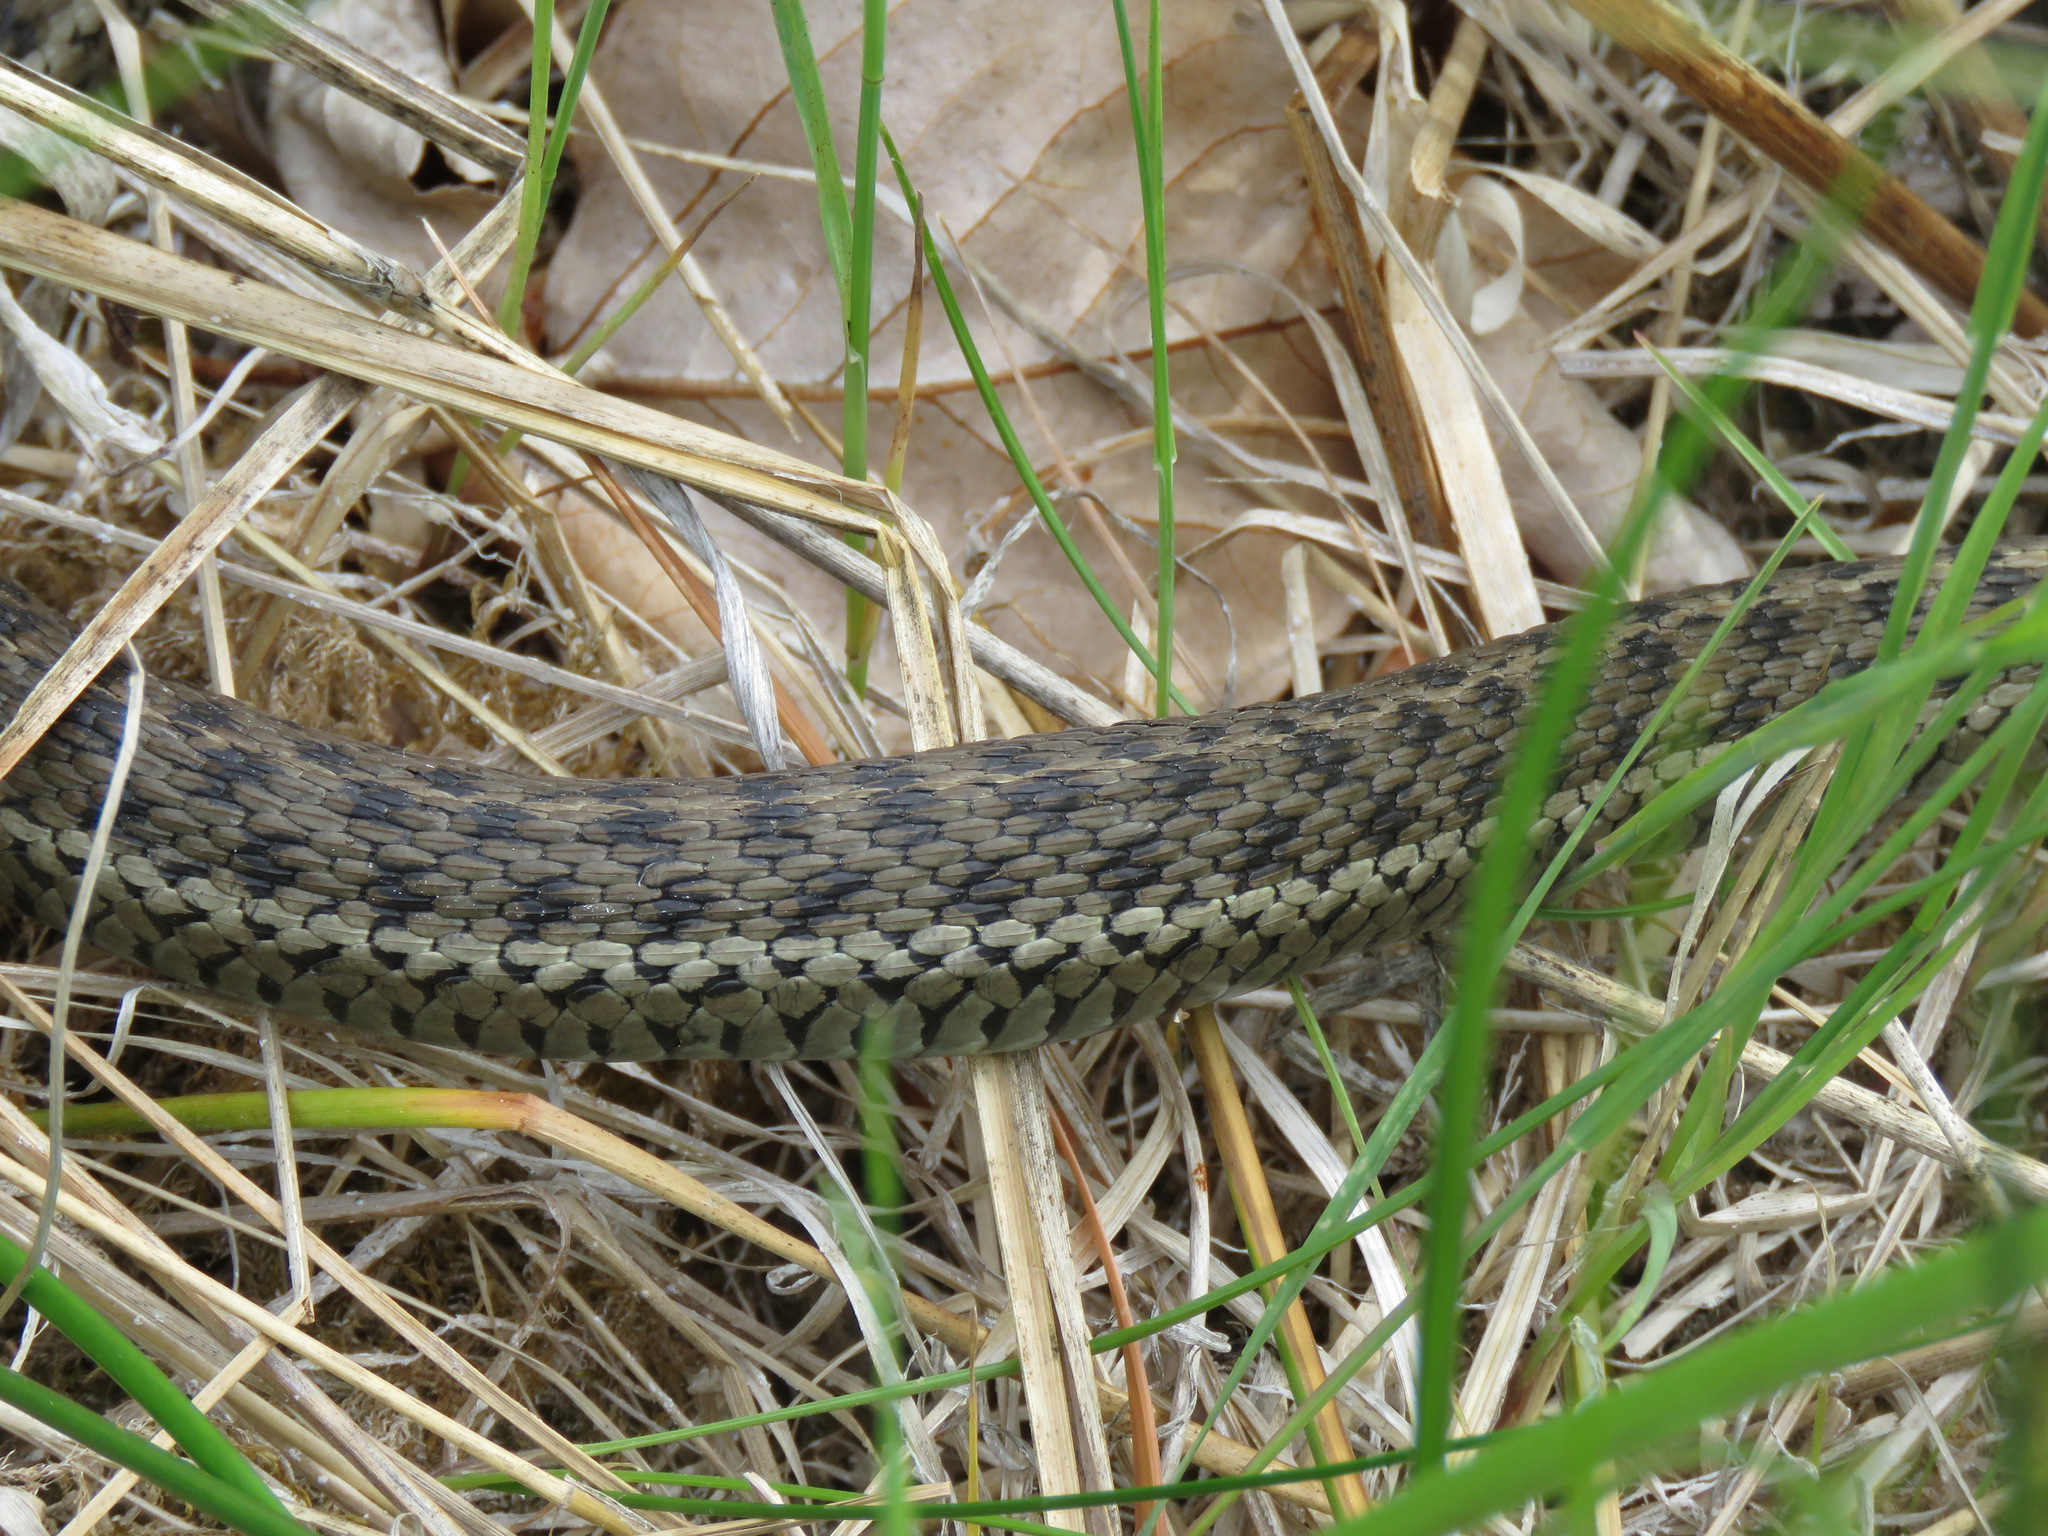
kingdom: Animalia
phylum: Chordata
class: Squamata
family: Colubridae
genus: Thamnophis
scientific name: Thamnophis elegans
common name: Western terrestrial garter snake
